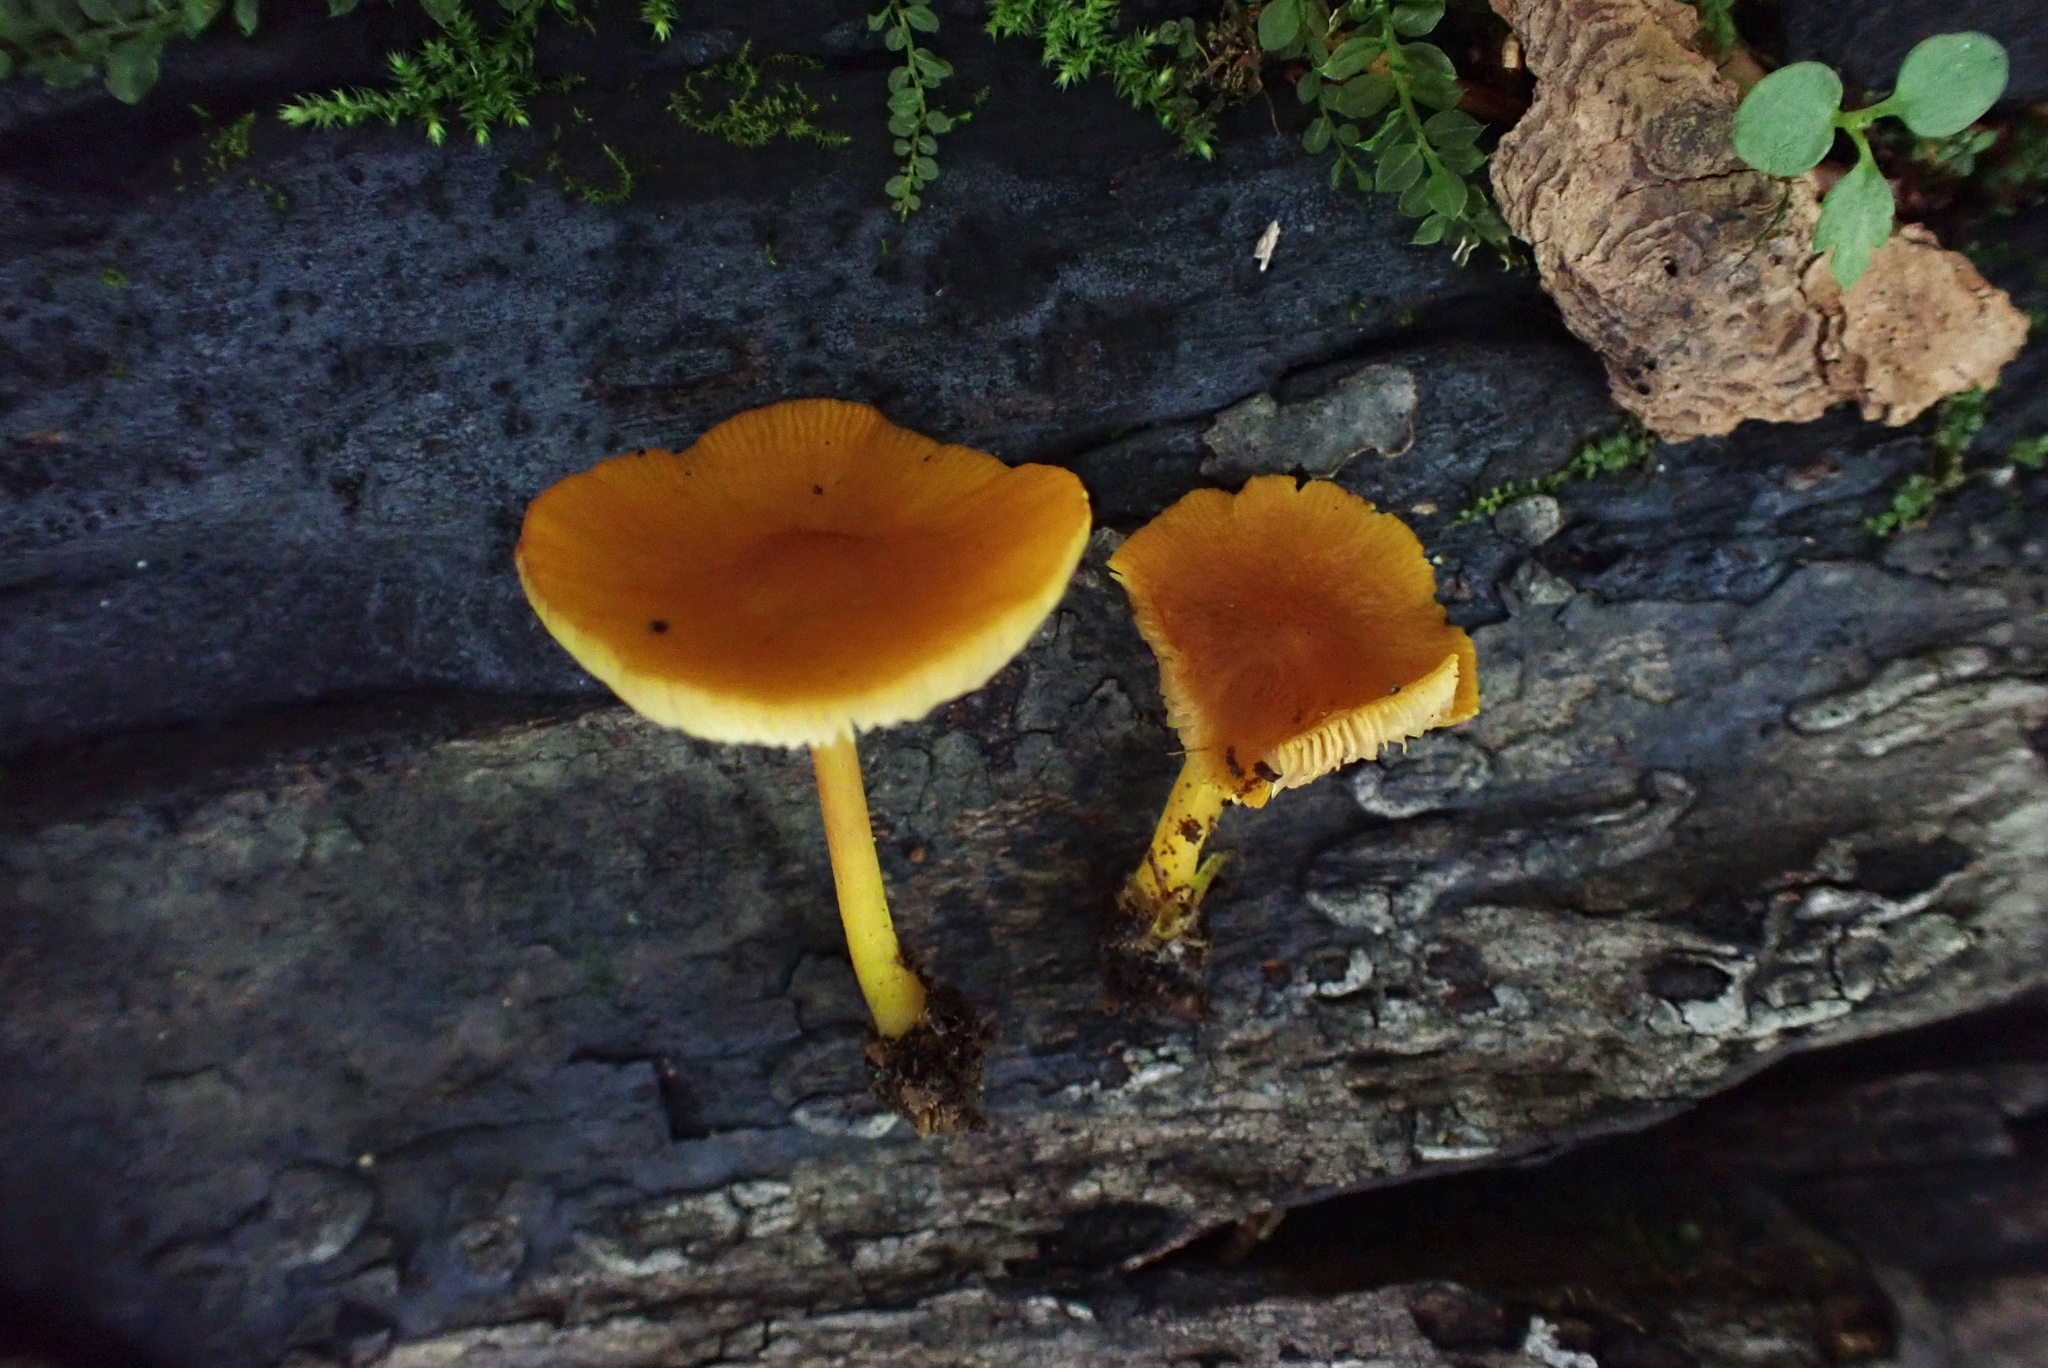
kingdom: Fungi
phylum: Basidiomycota
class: Agaricomycetes
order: Agaricales
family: Pluteaceae
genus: Pluteus
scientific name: Pluteus chrysophlebius
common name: Yellow deer mushroom
